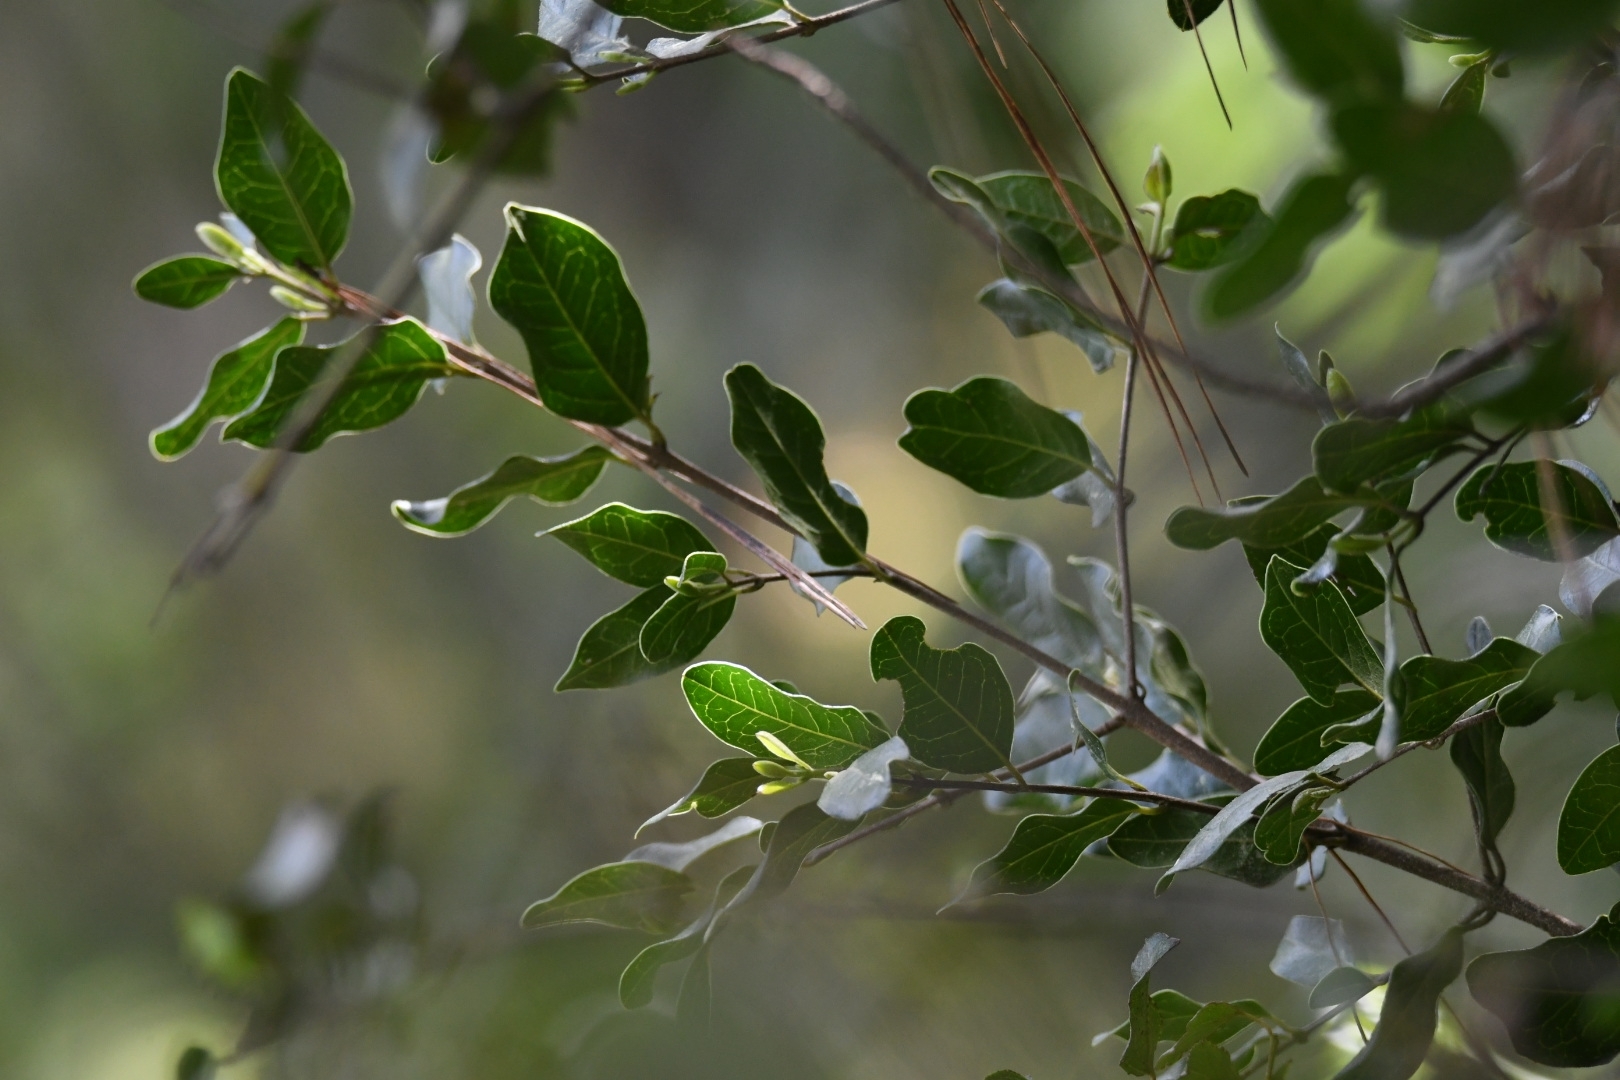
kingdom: Plantae
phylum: Tracheophyta
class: Magnoliopsida
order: Sapindales
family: Anacardiaceae
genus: Lithraea
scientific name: Lithraea caustica
